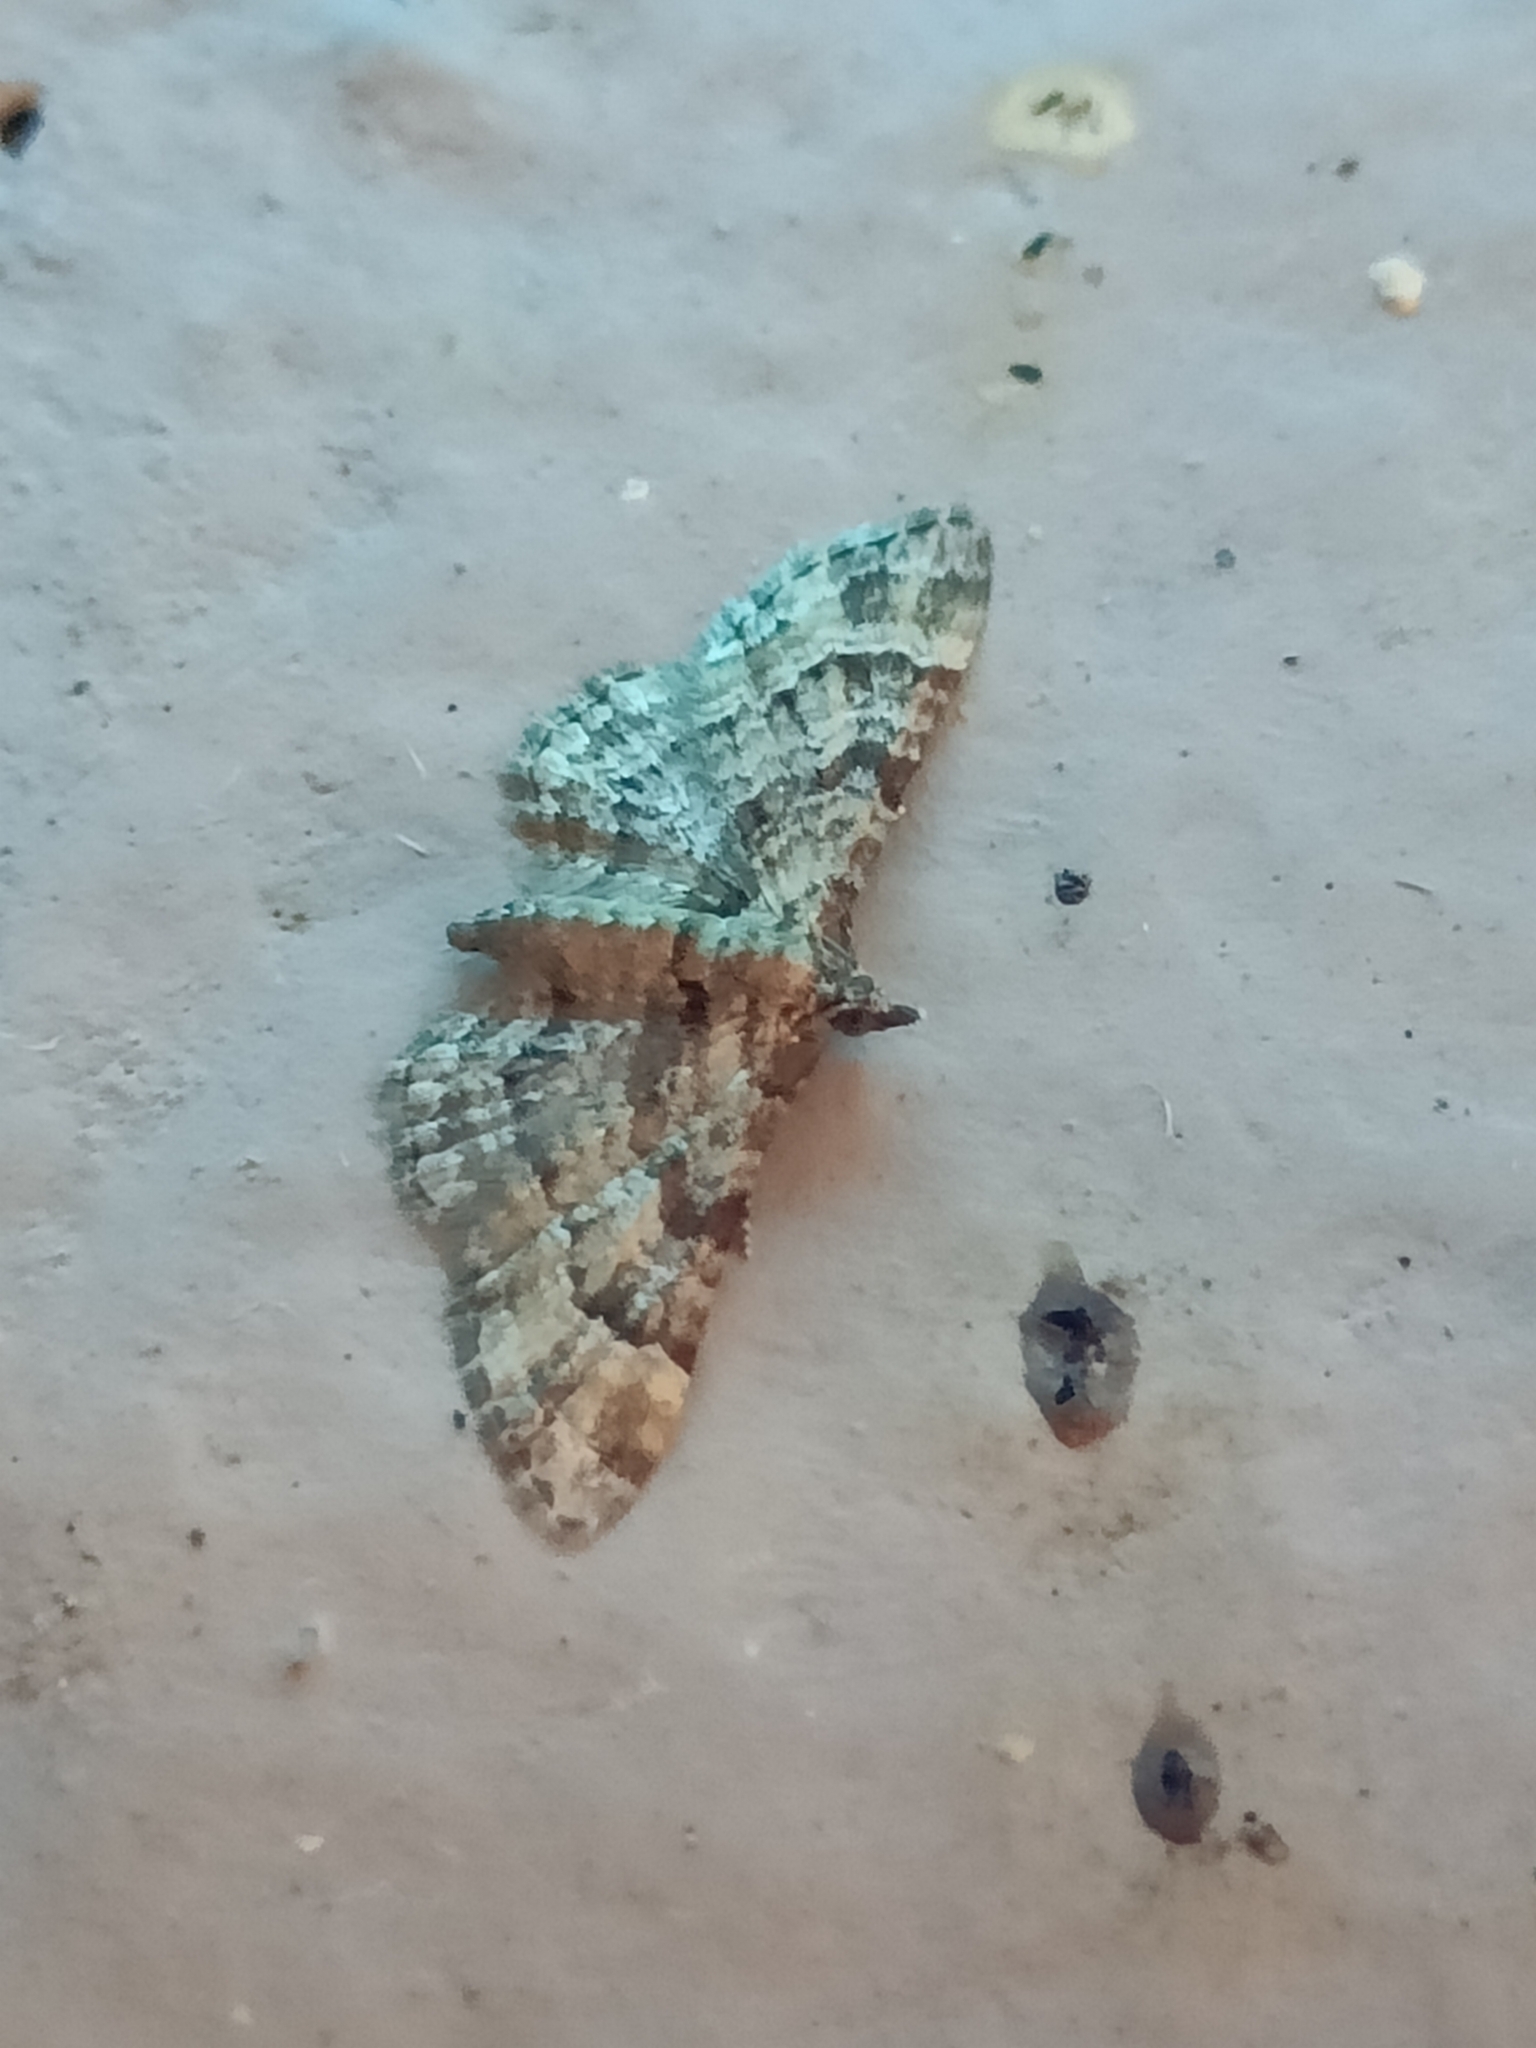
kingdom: Animalia
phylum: Arthropoda
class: Insecta
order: Lepidoptera
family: Geometridae
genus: Gymnoscelis
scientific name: Gymnoscelis rufifasciata
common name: Double-striped pug
